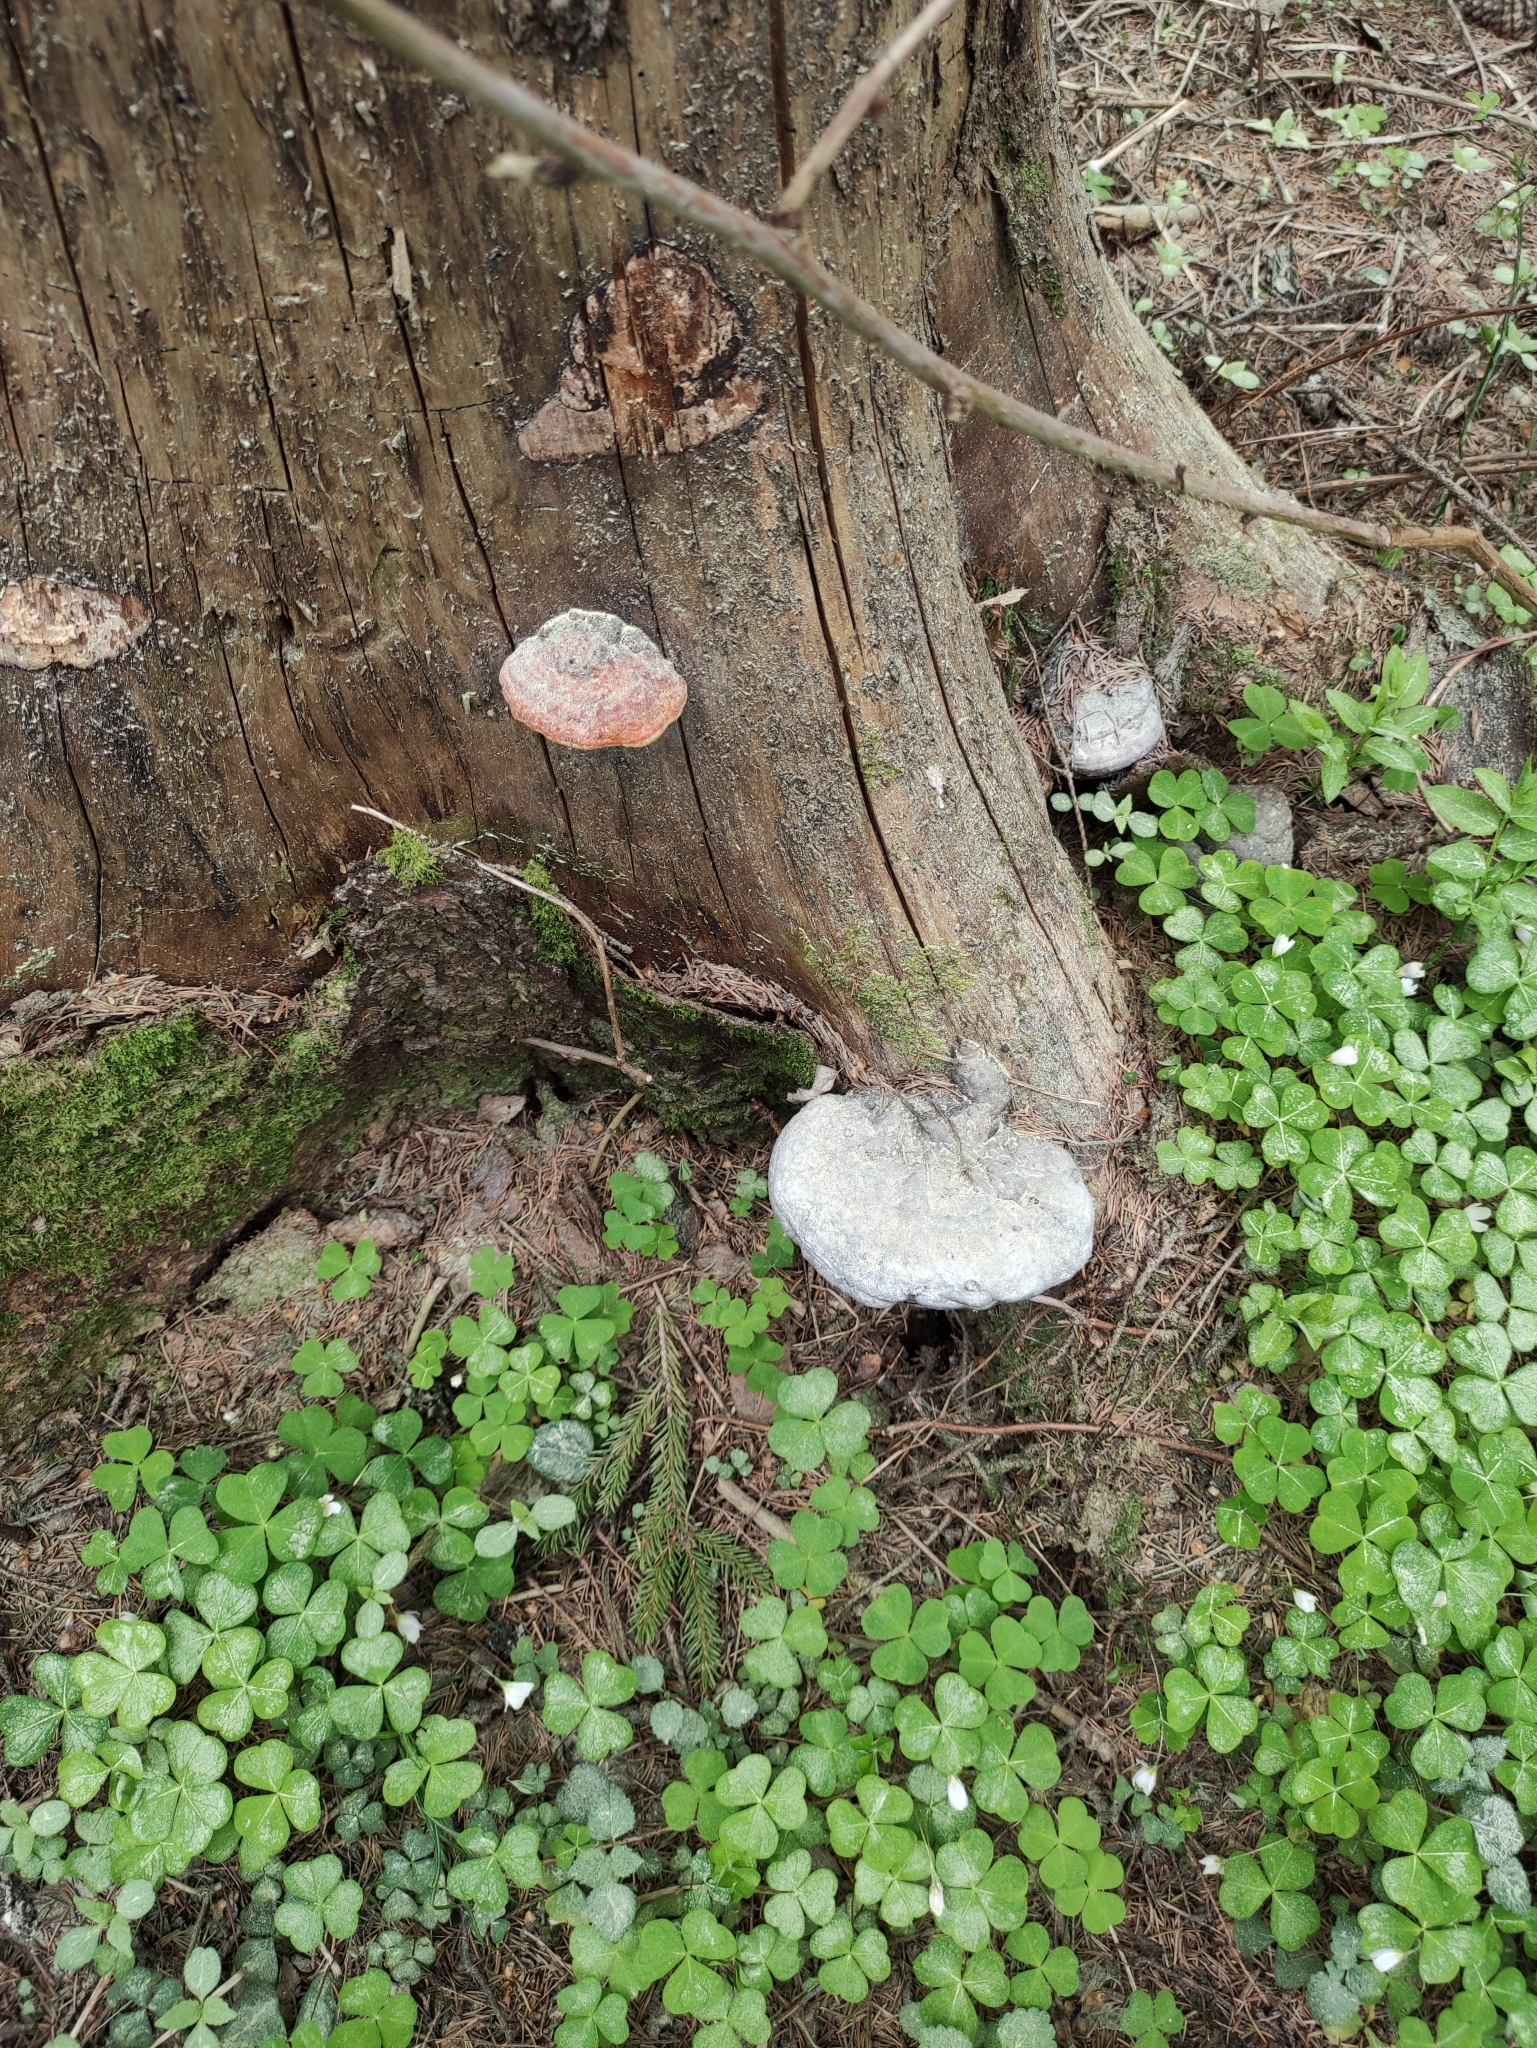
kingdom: Fungi
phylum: Basidiomycota
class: Agaricomycetes
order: Polyporales
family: Fomitopsidaceae
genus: Fomitopsis
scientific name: Fomitopsis pinicola
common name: Red-belted bracket
